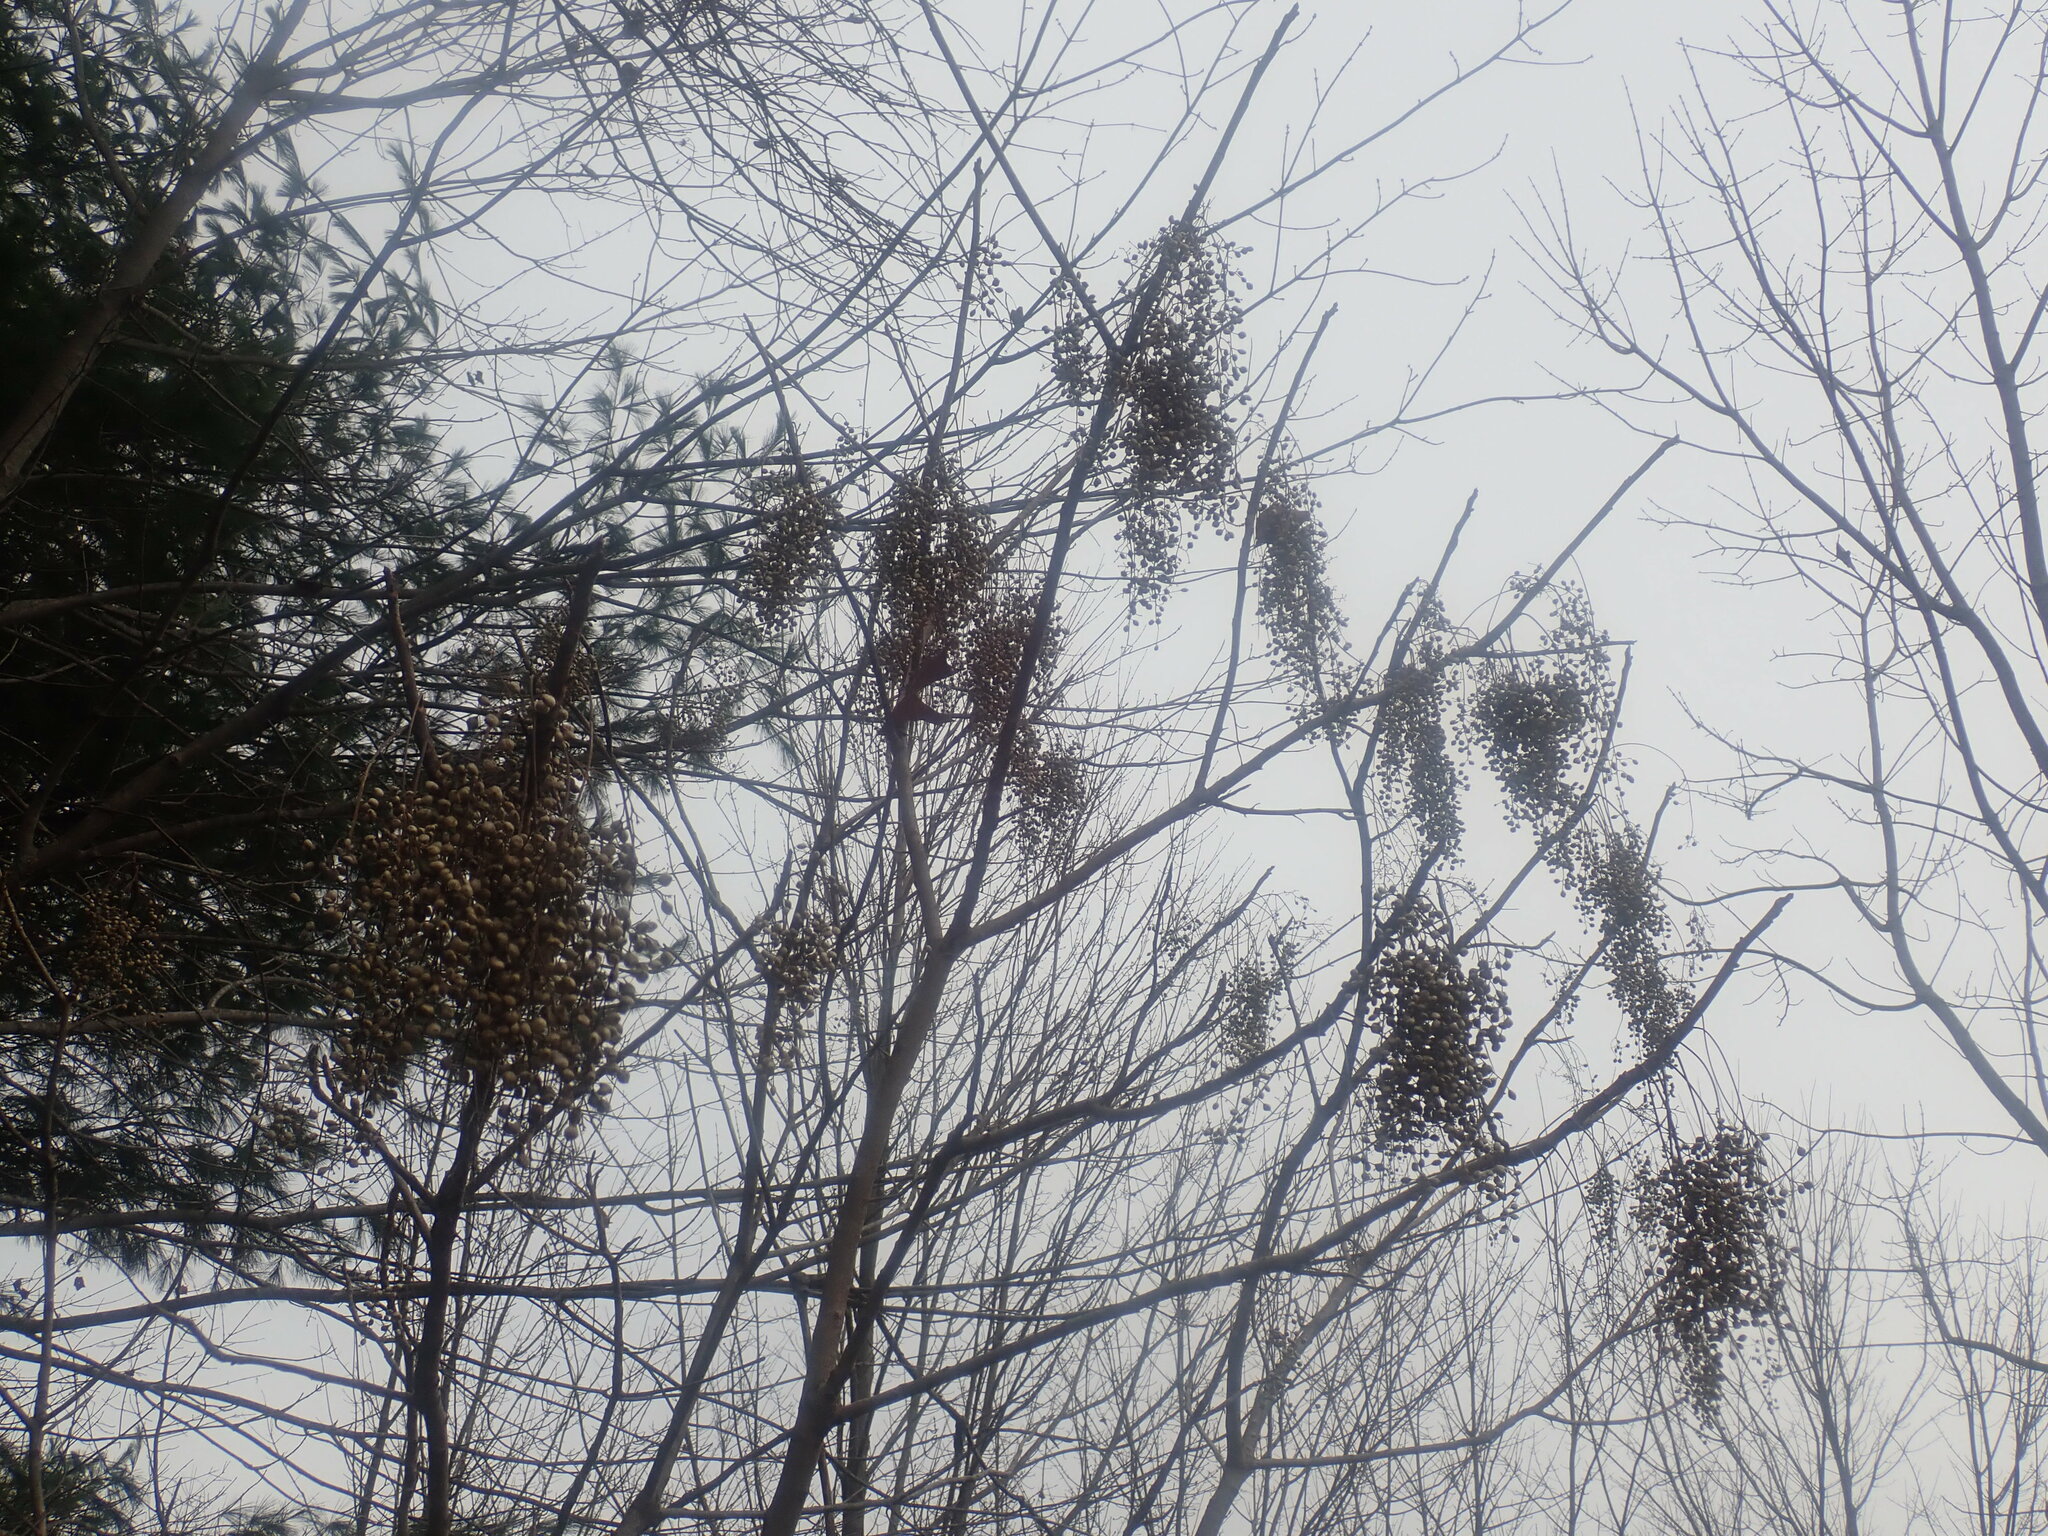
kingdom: Plantae
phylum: Tracheophyta
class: Magnoliopsida
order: Sapindales
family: Anacardiaceae
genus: Toxicodendron
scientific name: Toxicodendron vernix
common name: Poison sumac
